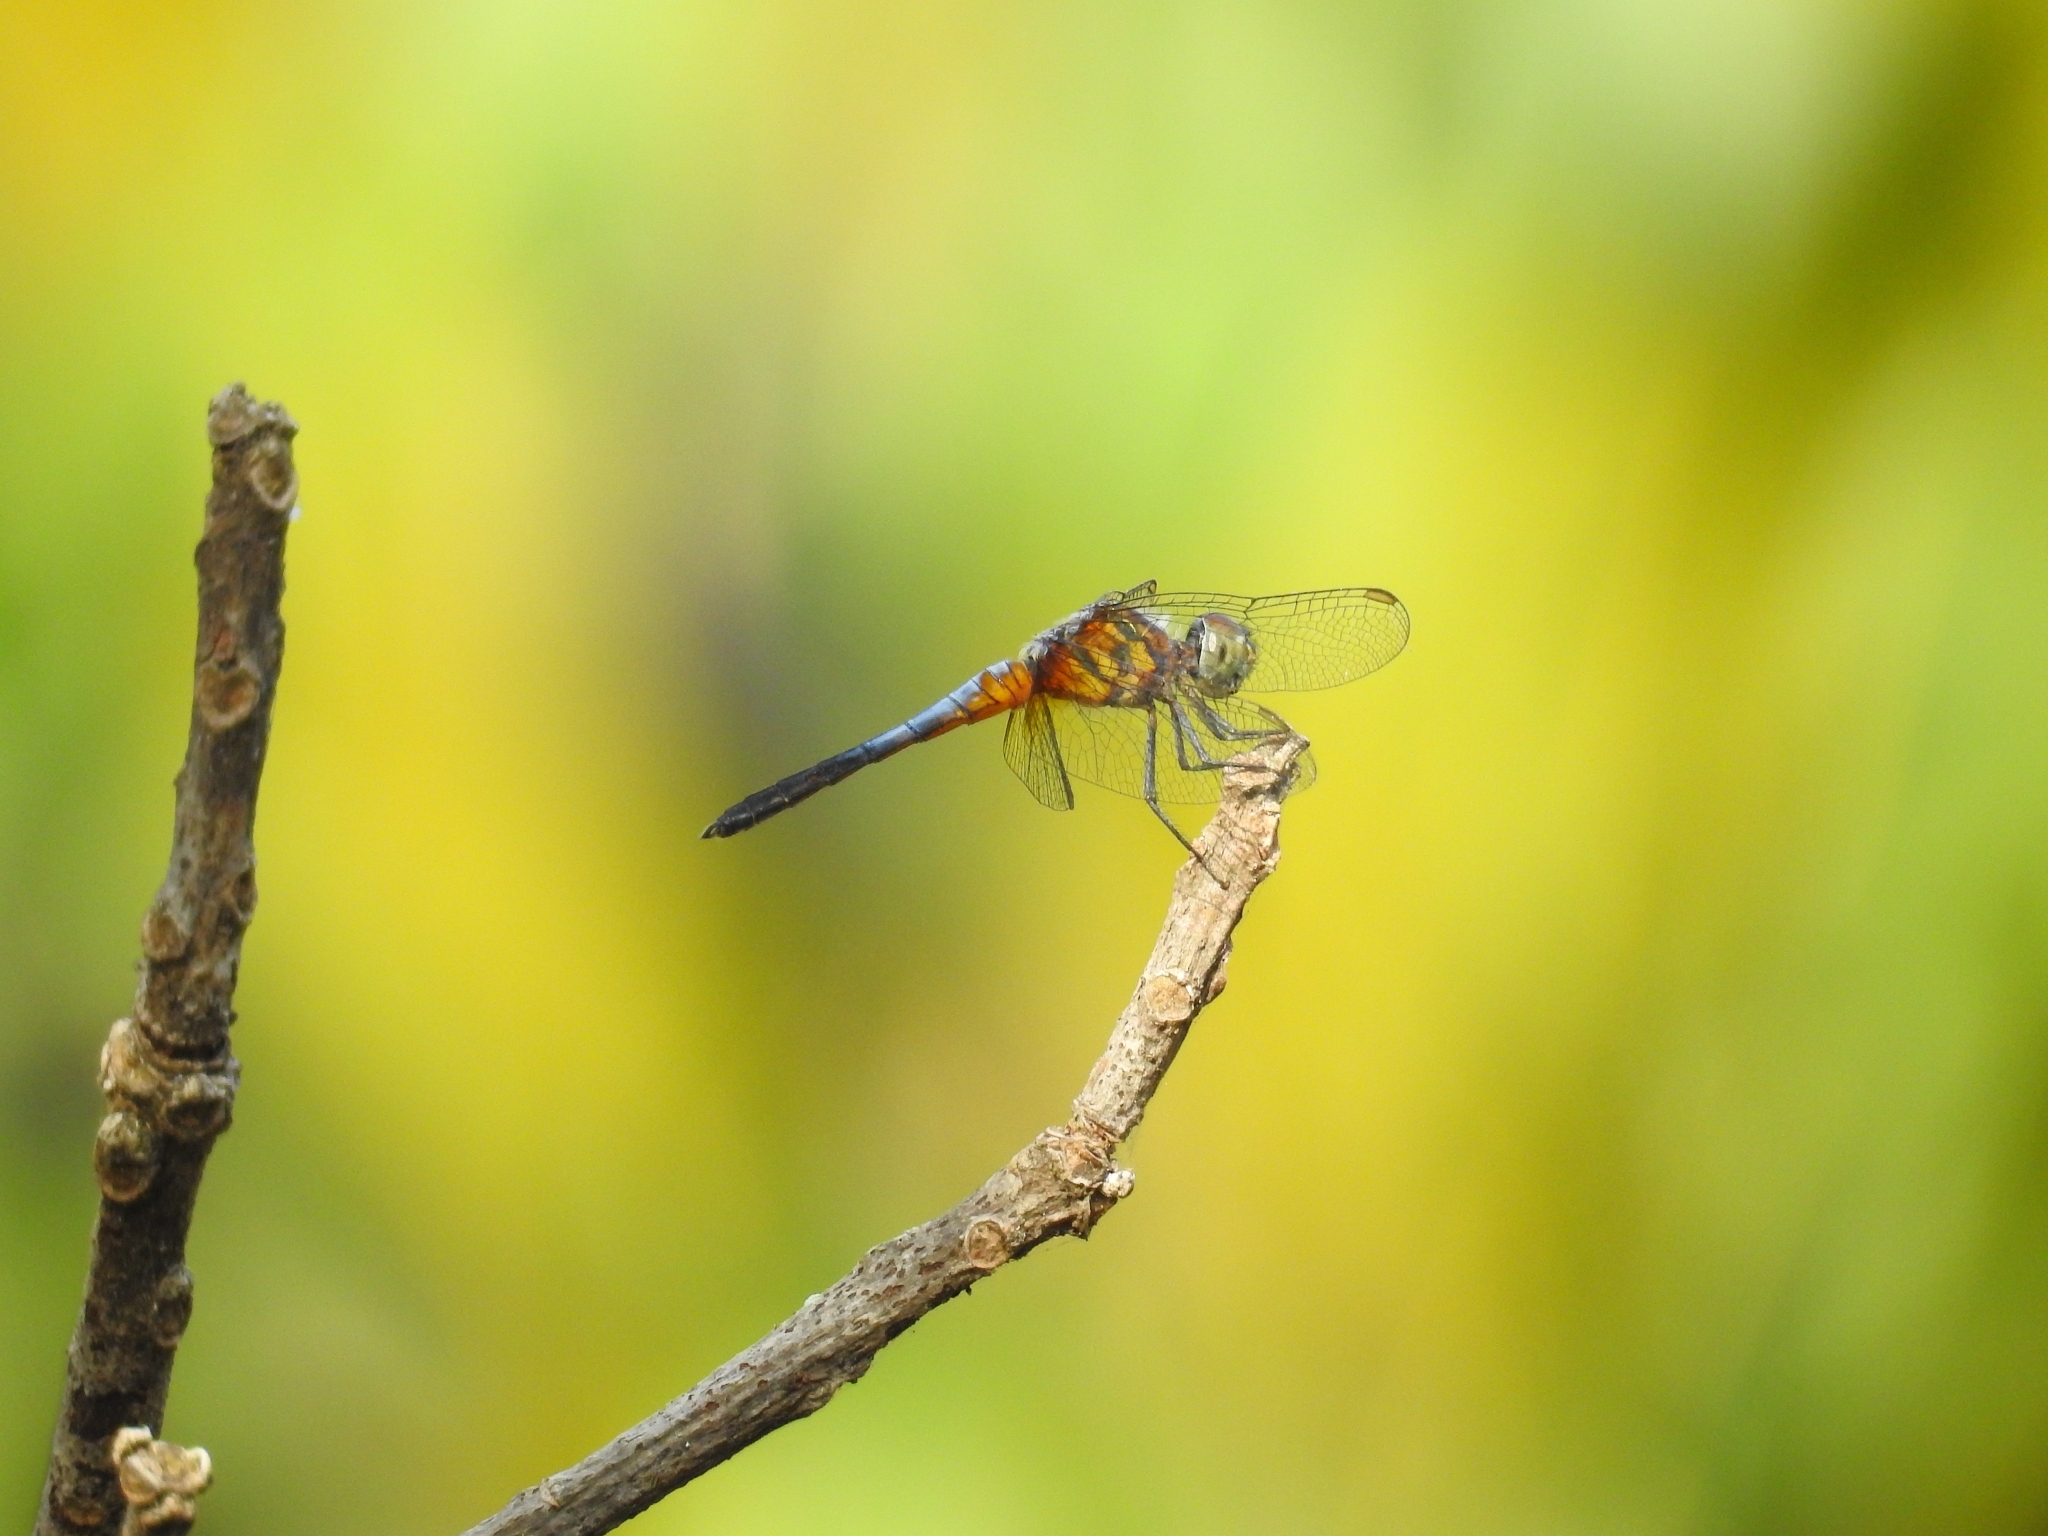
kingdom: Animalia
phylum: Arthropoda
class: Insecta
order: Odonata
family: Libellulidae
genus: Brachydiplax
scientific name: Brachydiplax chalybea
